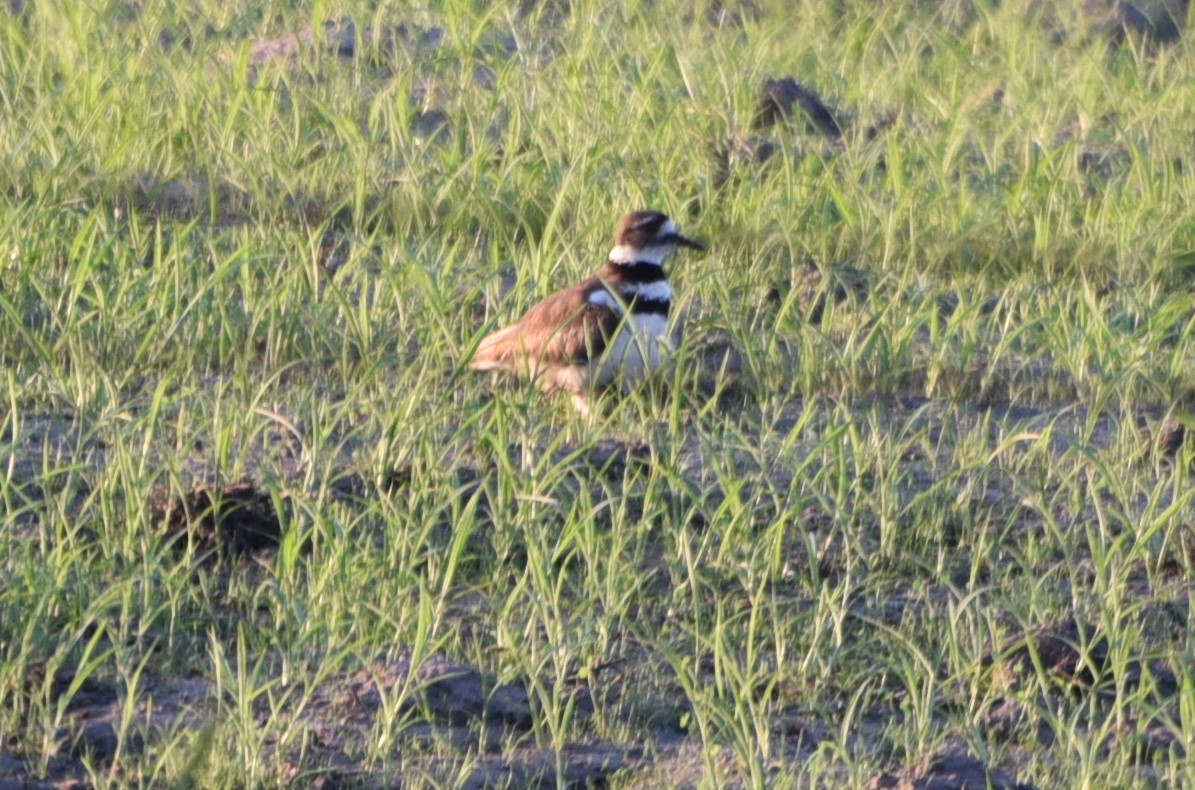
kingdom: Animalia
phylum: Chordata
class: Aves
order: Charadriiformes
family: Charadriidae
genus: Charadrius
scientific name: Charadrius vociferus
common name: Killdeer
